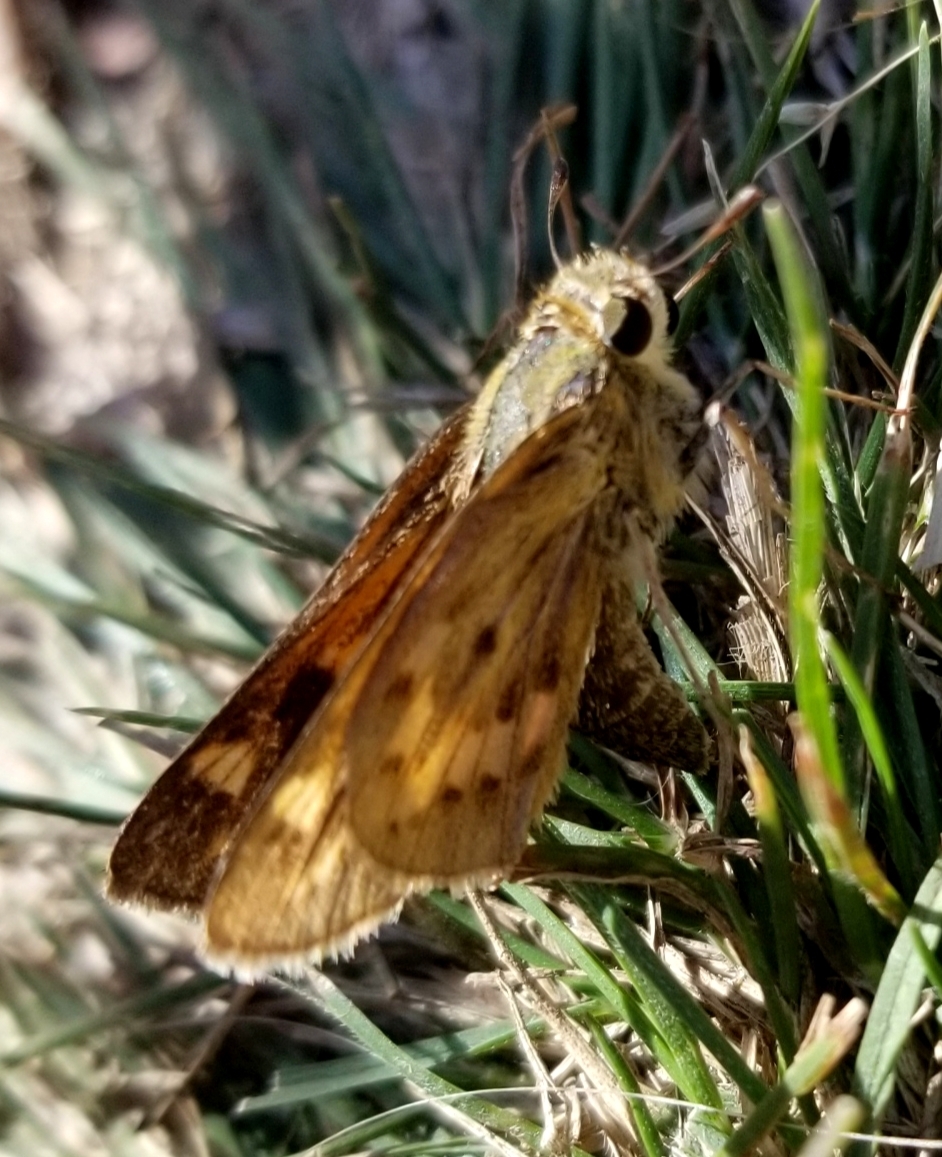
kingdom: Animalia
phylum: Arthropoda
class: Insecta
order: Lepidoptera
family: Hesperiidae
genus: Hylephila
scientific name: Hylephila phyleus
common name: Fiery skipper
